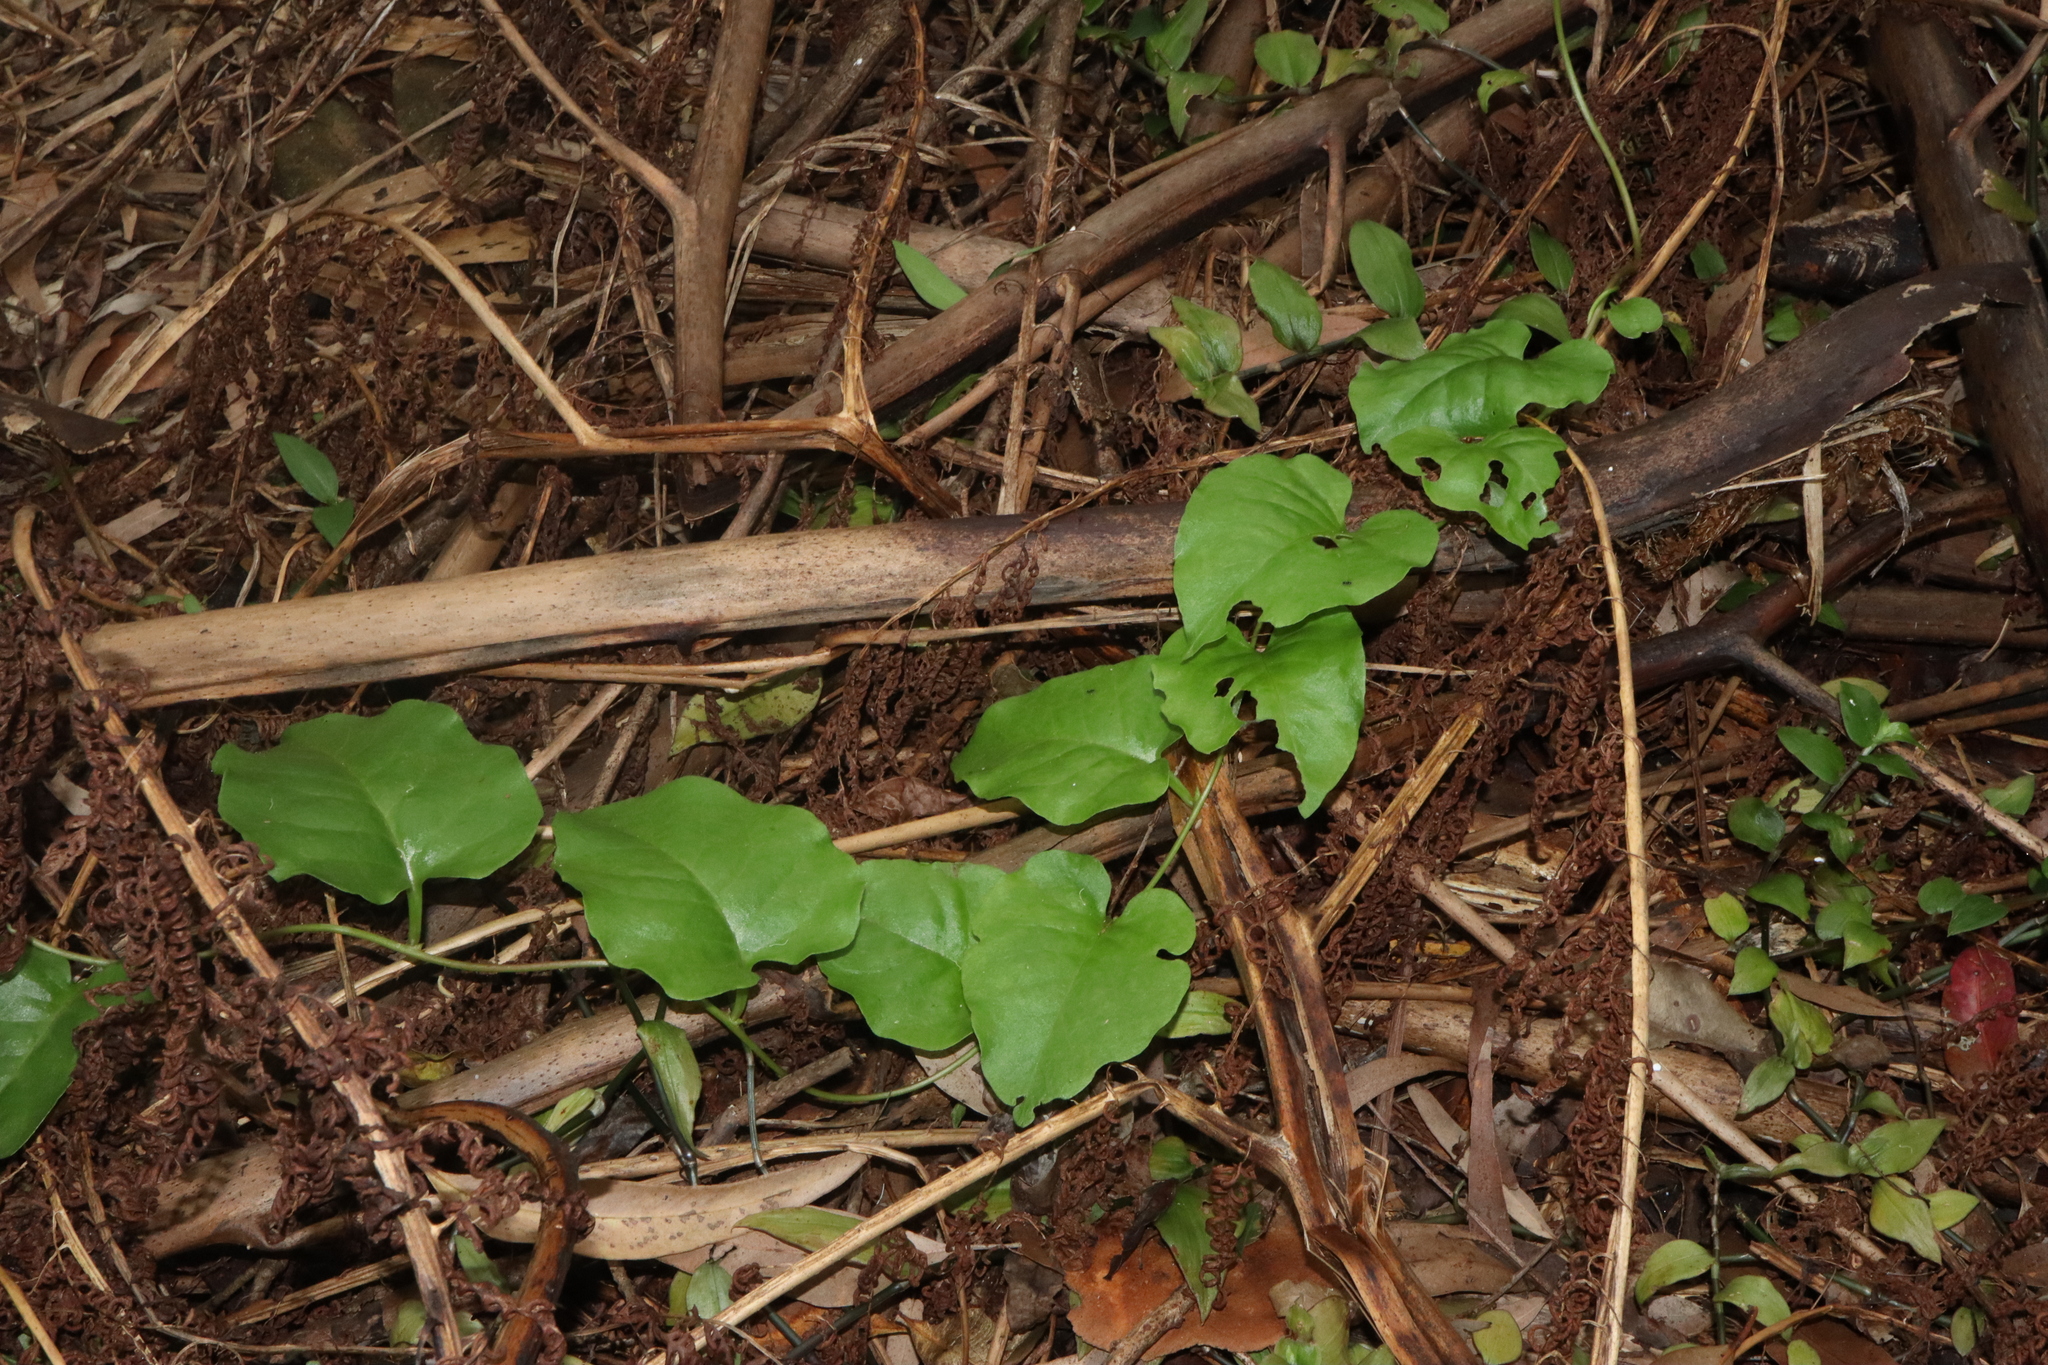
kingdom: Plantae
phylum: Tracheophyta
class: Magnoliopsida
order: Caryophyllales
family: Basellaceae
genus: Anredera
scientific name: Anredera cordifolia
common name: Heartleaf madeiravine
